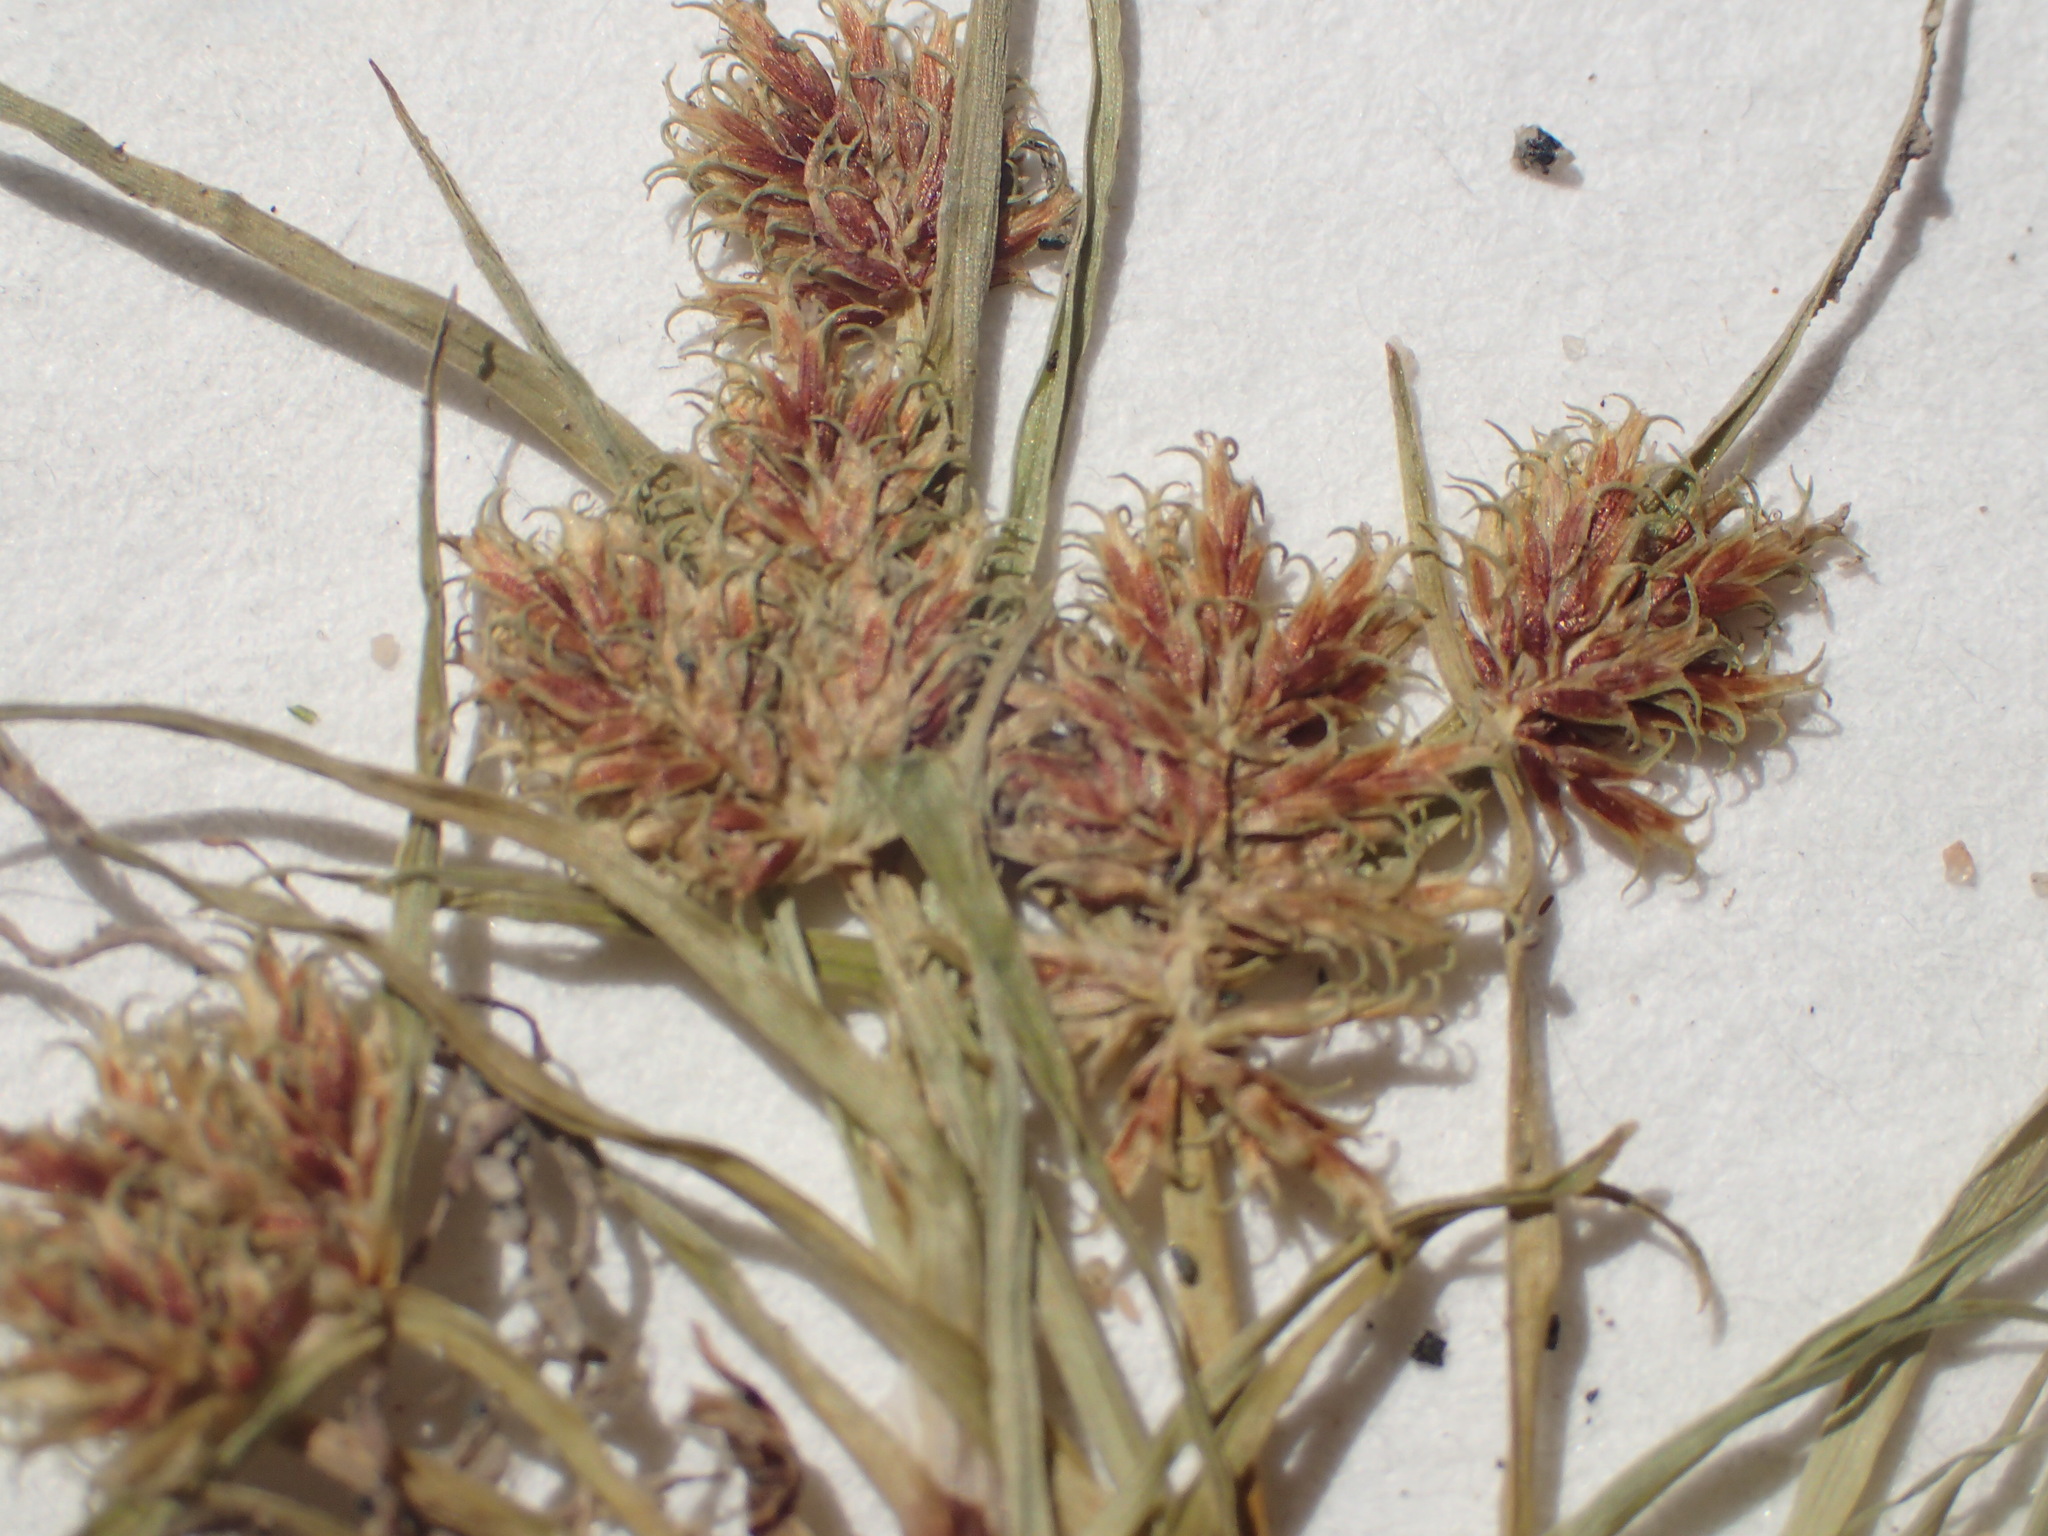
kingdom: Plantae
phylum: Tracheophyta
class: Liliopsida
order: Poales
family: Cyperaceae
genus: Cyperus
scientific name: Cyperus squarrosus
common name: Awned cyperus
